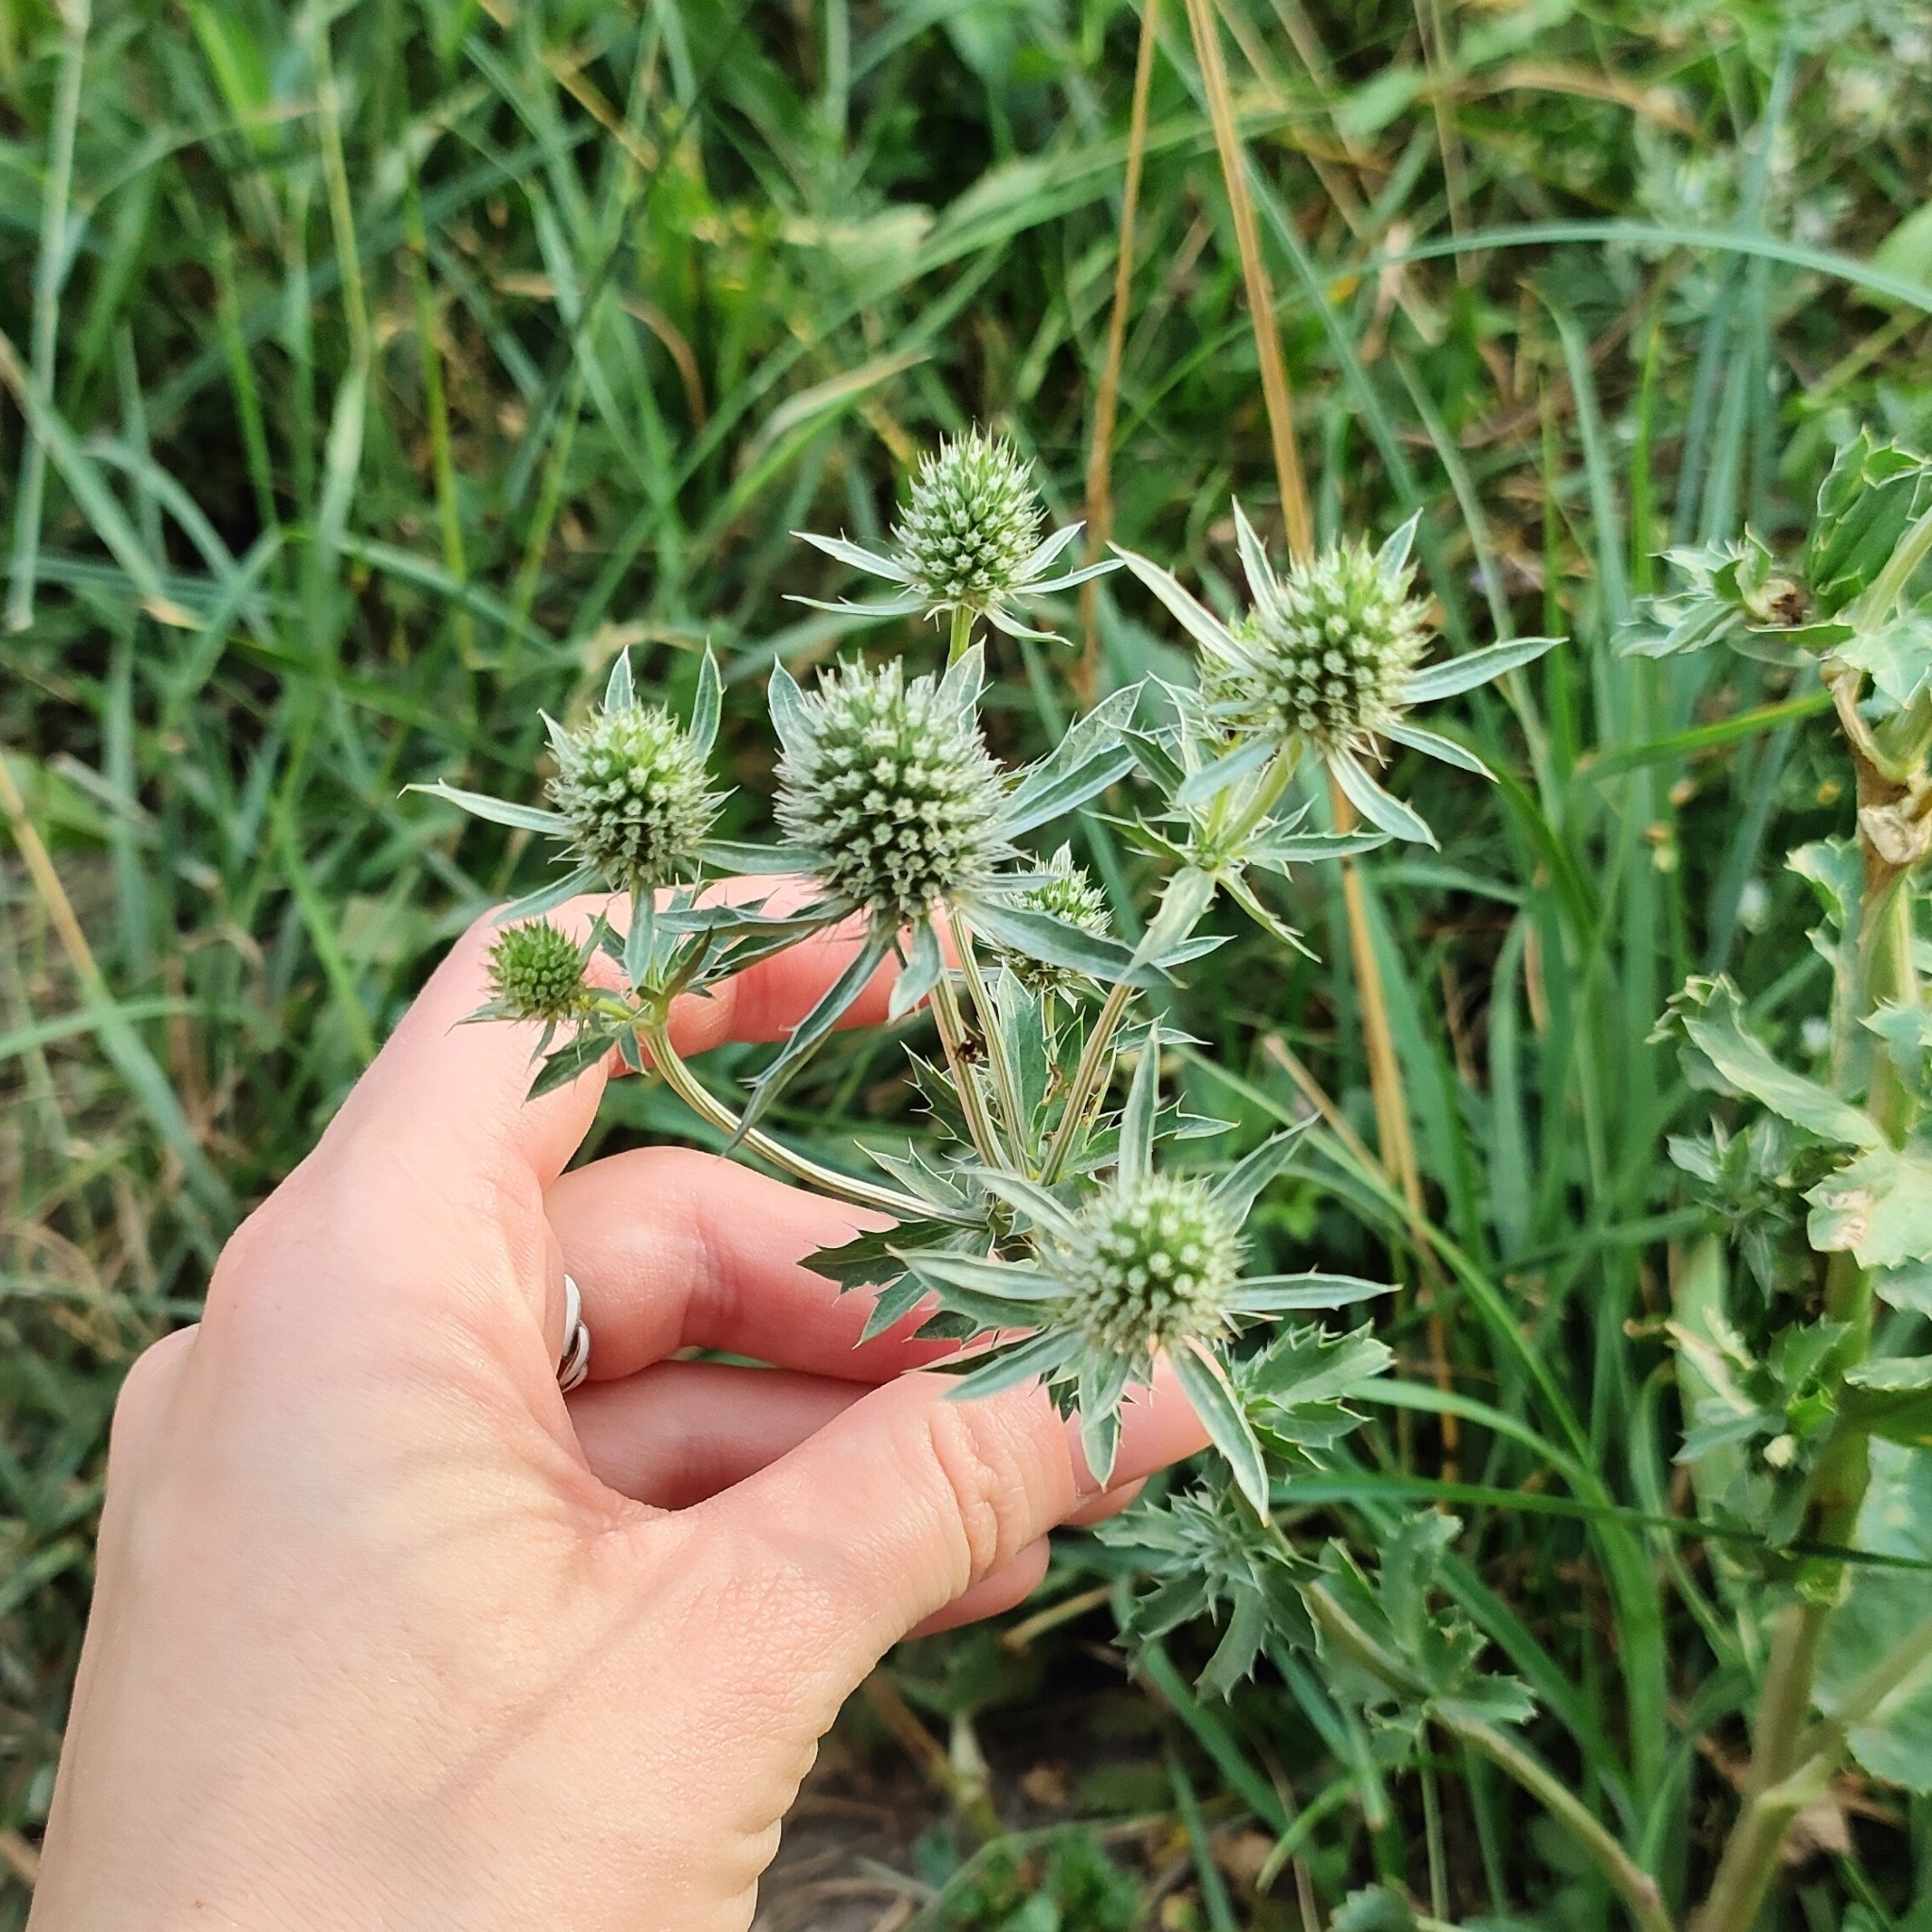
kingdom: Plantae
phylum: Tracheophyta
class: Magnoliopsida
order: Apiales
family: Apiaceae
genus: Eryngium
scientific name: Eryngium planum
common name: Blue eryngo
